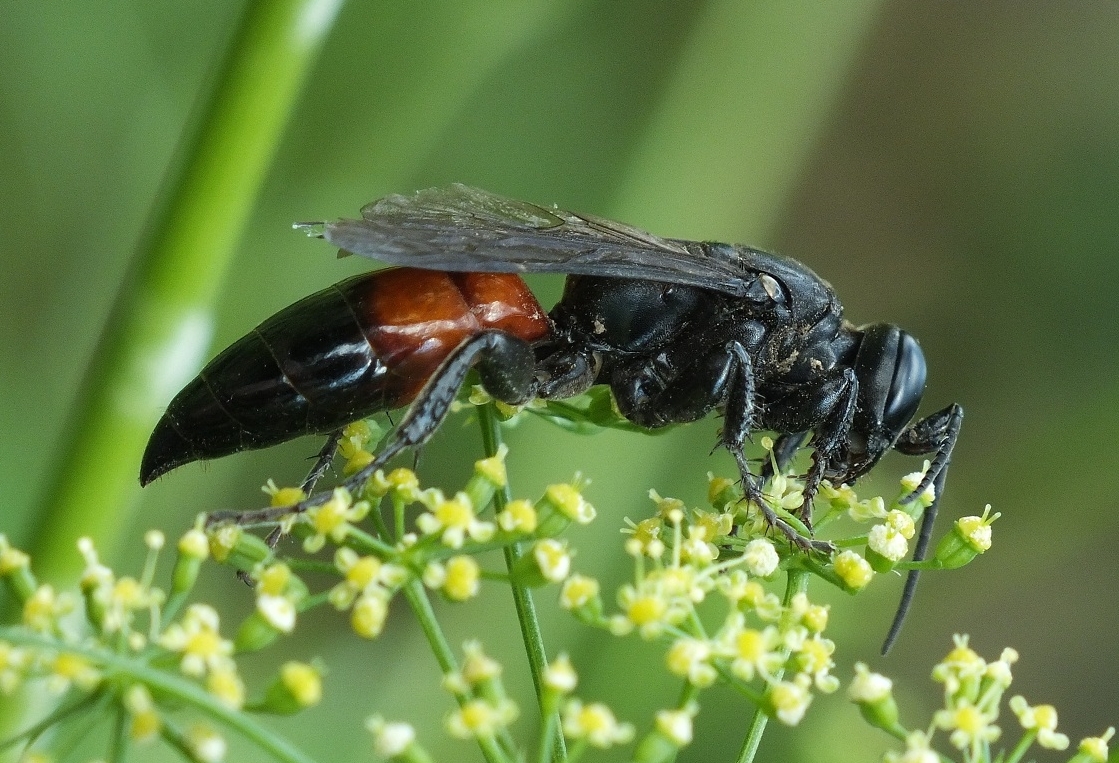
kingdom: Animalia
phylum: Arthropoda
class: Insecta
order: Hymenoptera
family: Crabronidae
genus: Larra
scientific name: Larra anathema
